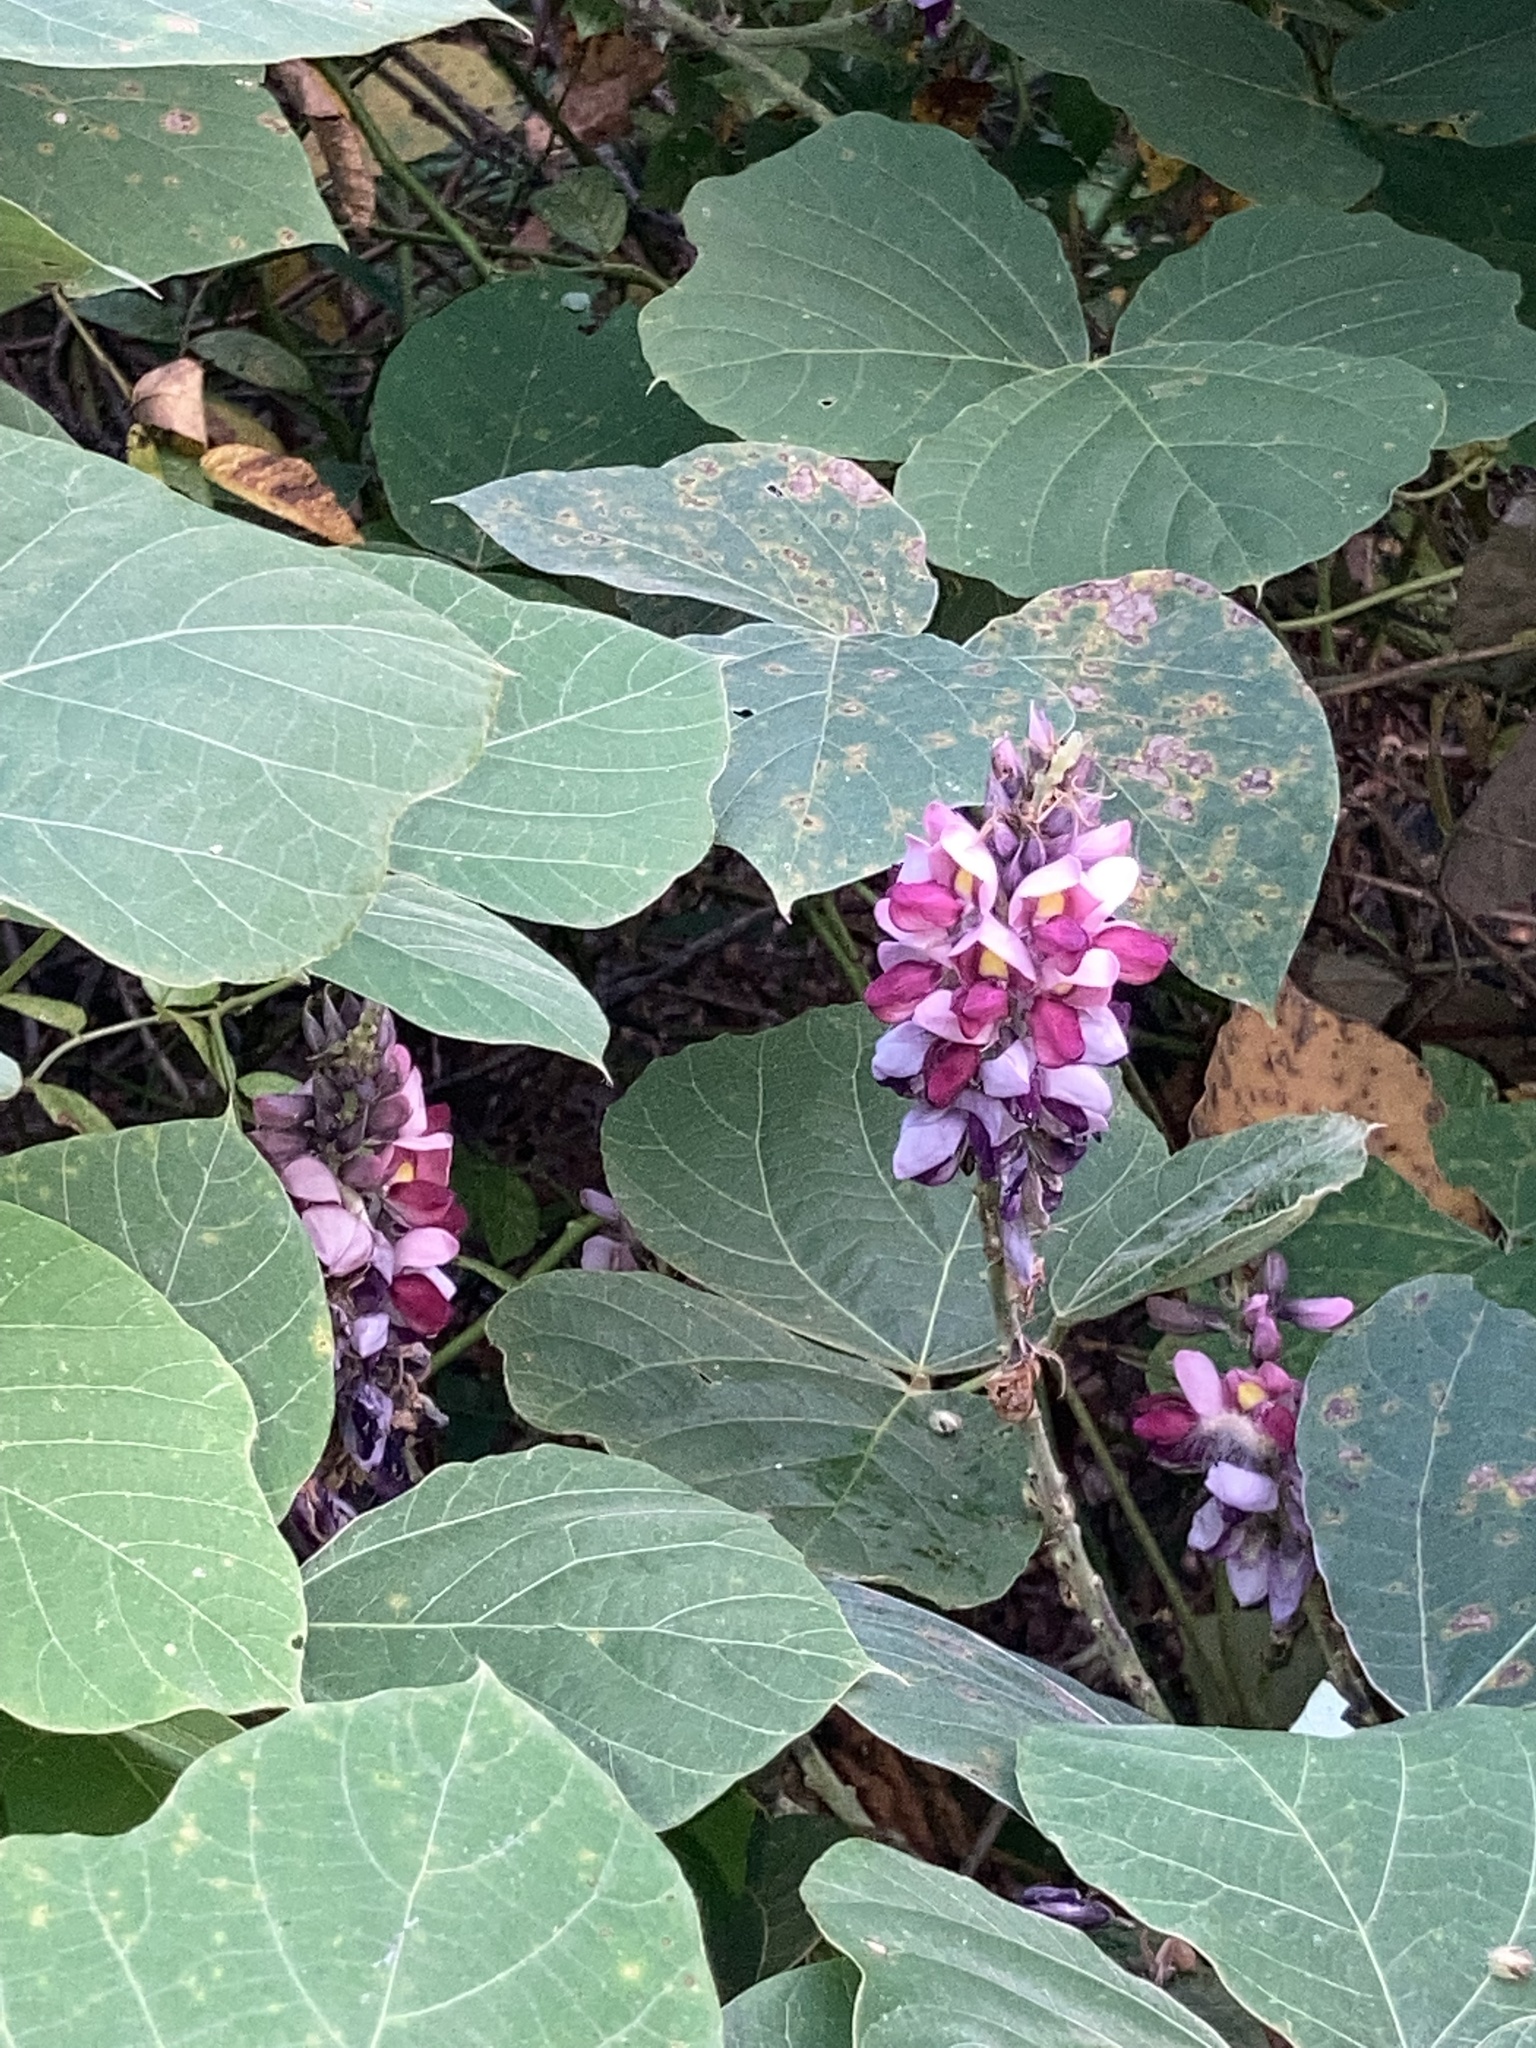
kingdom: Plantae
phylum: Tracheophyta
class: Magnoliopsida
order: Fabales
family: Fabaceae
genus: Pueraria
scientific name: Pueraria montana
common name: Kudzu
